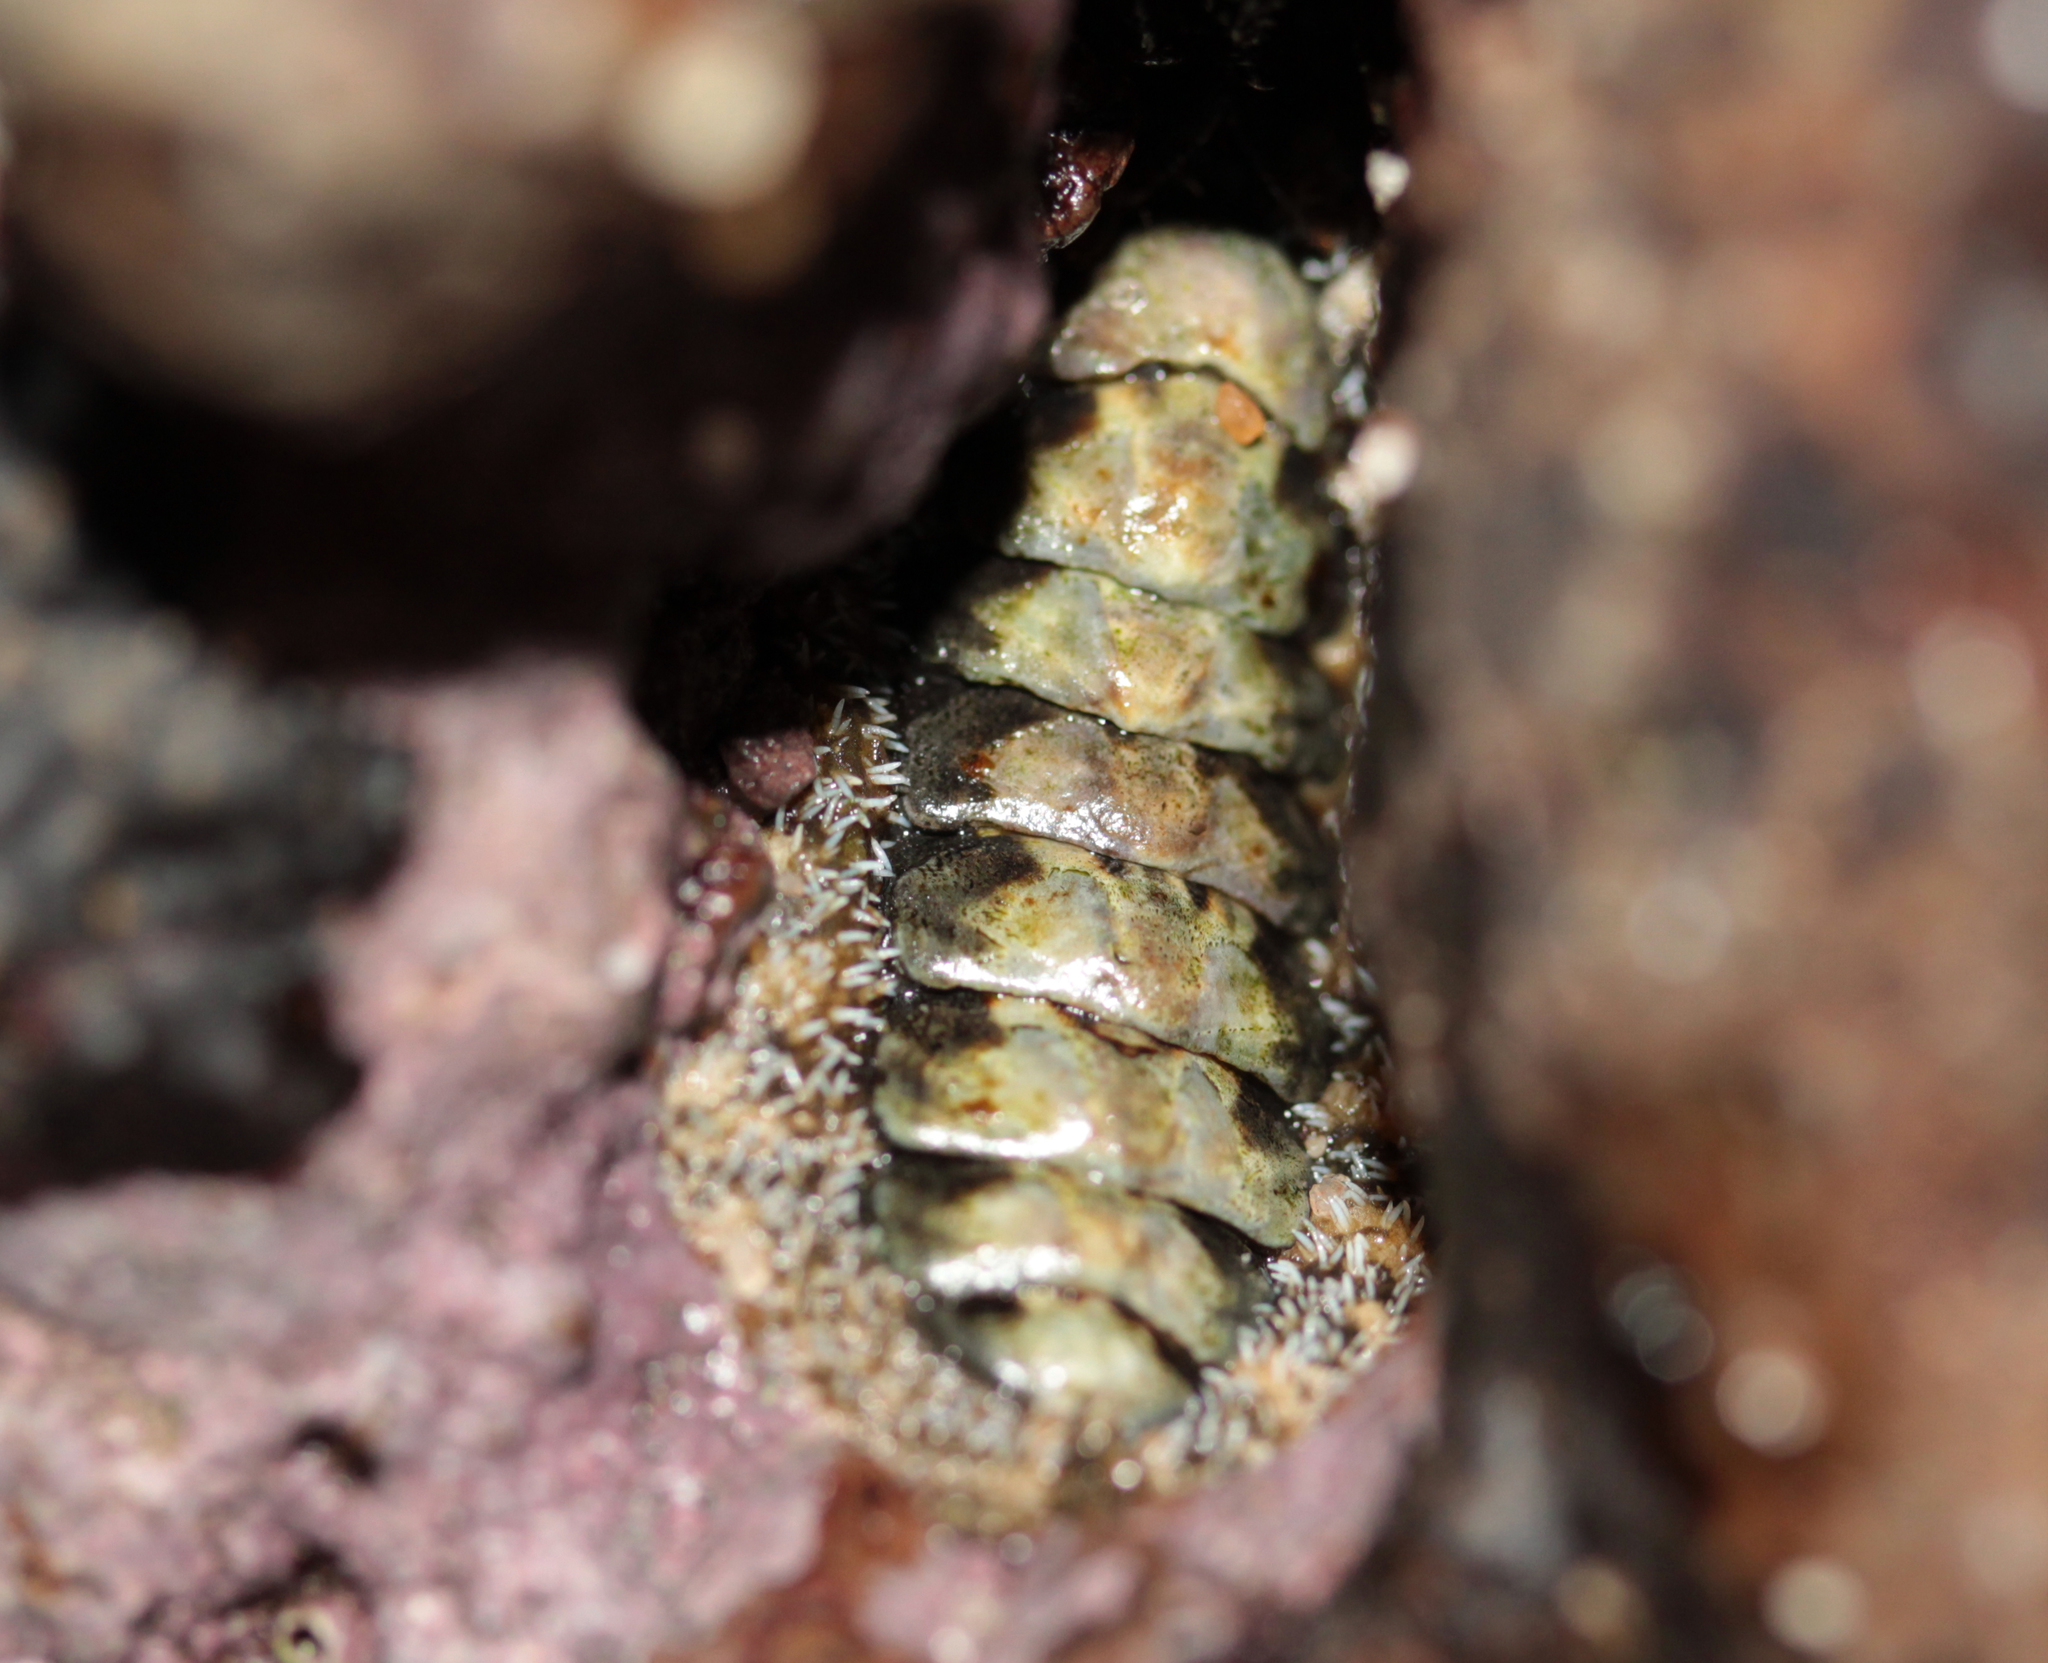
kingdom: Animalia
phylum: Mollusca
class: Polyplacophora
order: Chitonida
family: Tonicellidae
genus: Nuttallina
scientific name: Nuttallina californica
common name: California nuttall chiton
